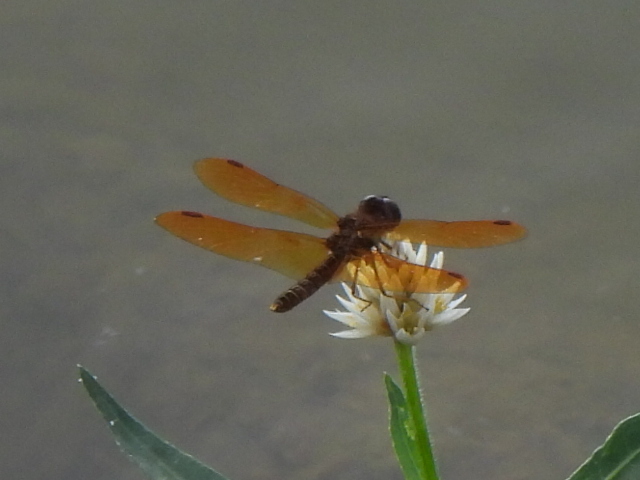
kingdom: Animalia
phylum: Arthropoda
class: Insecta
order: Odonata
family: Libellulidae
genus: Perithemis
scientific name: Perithemis tenera
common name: Eastern amberwing
